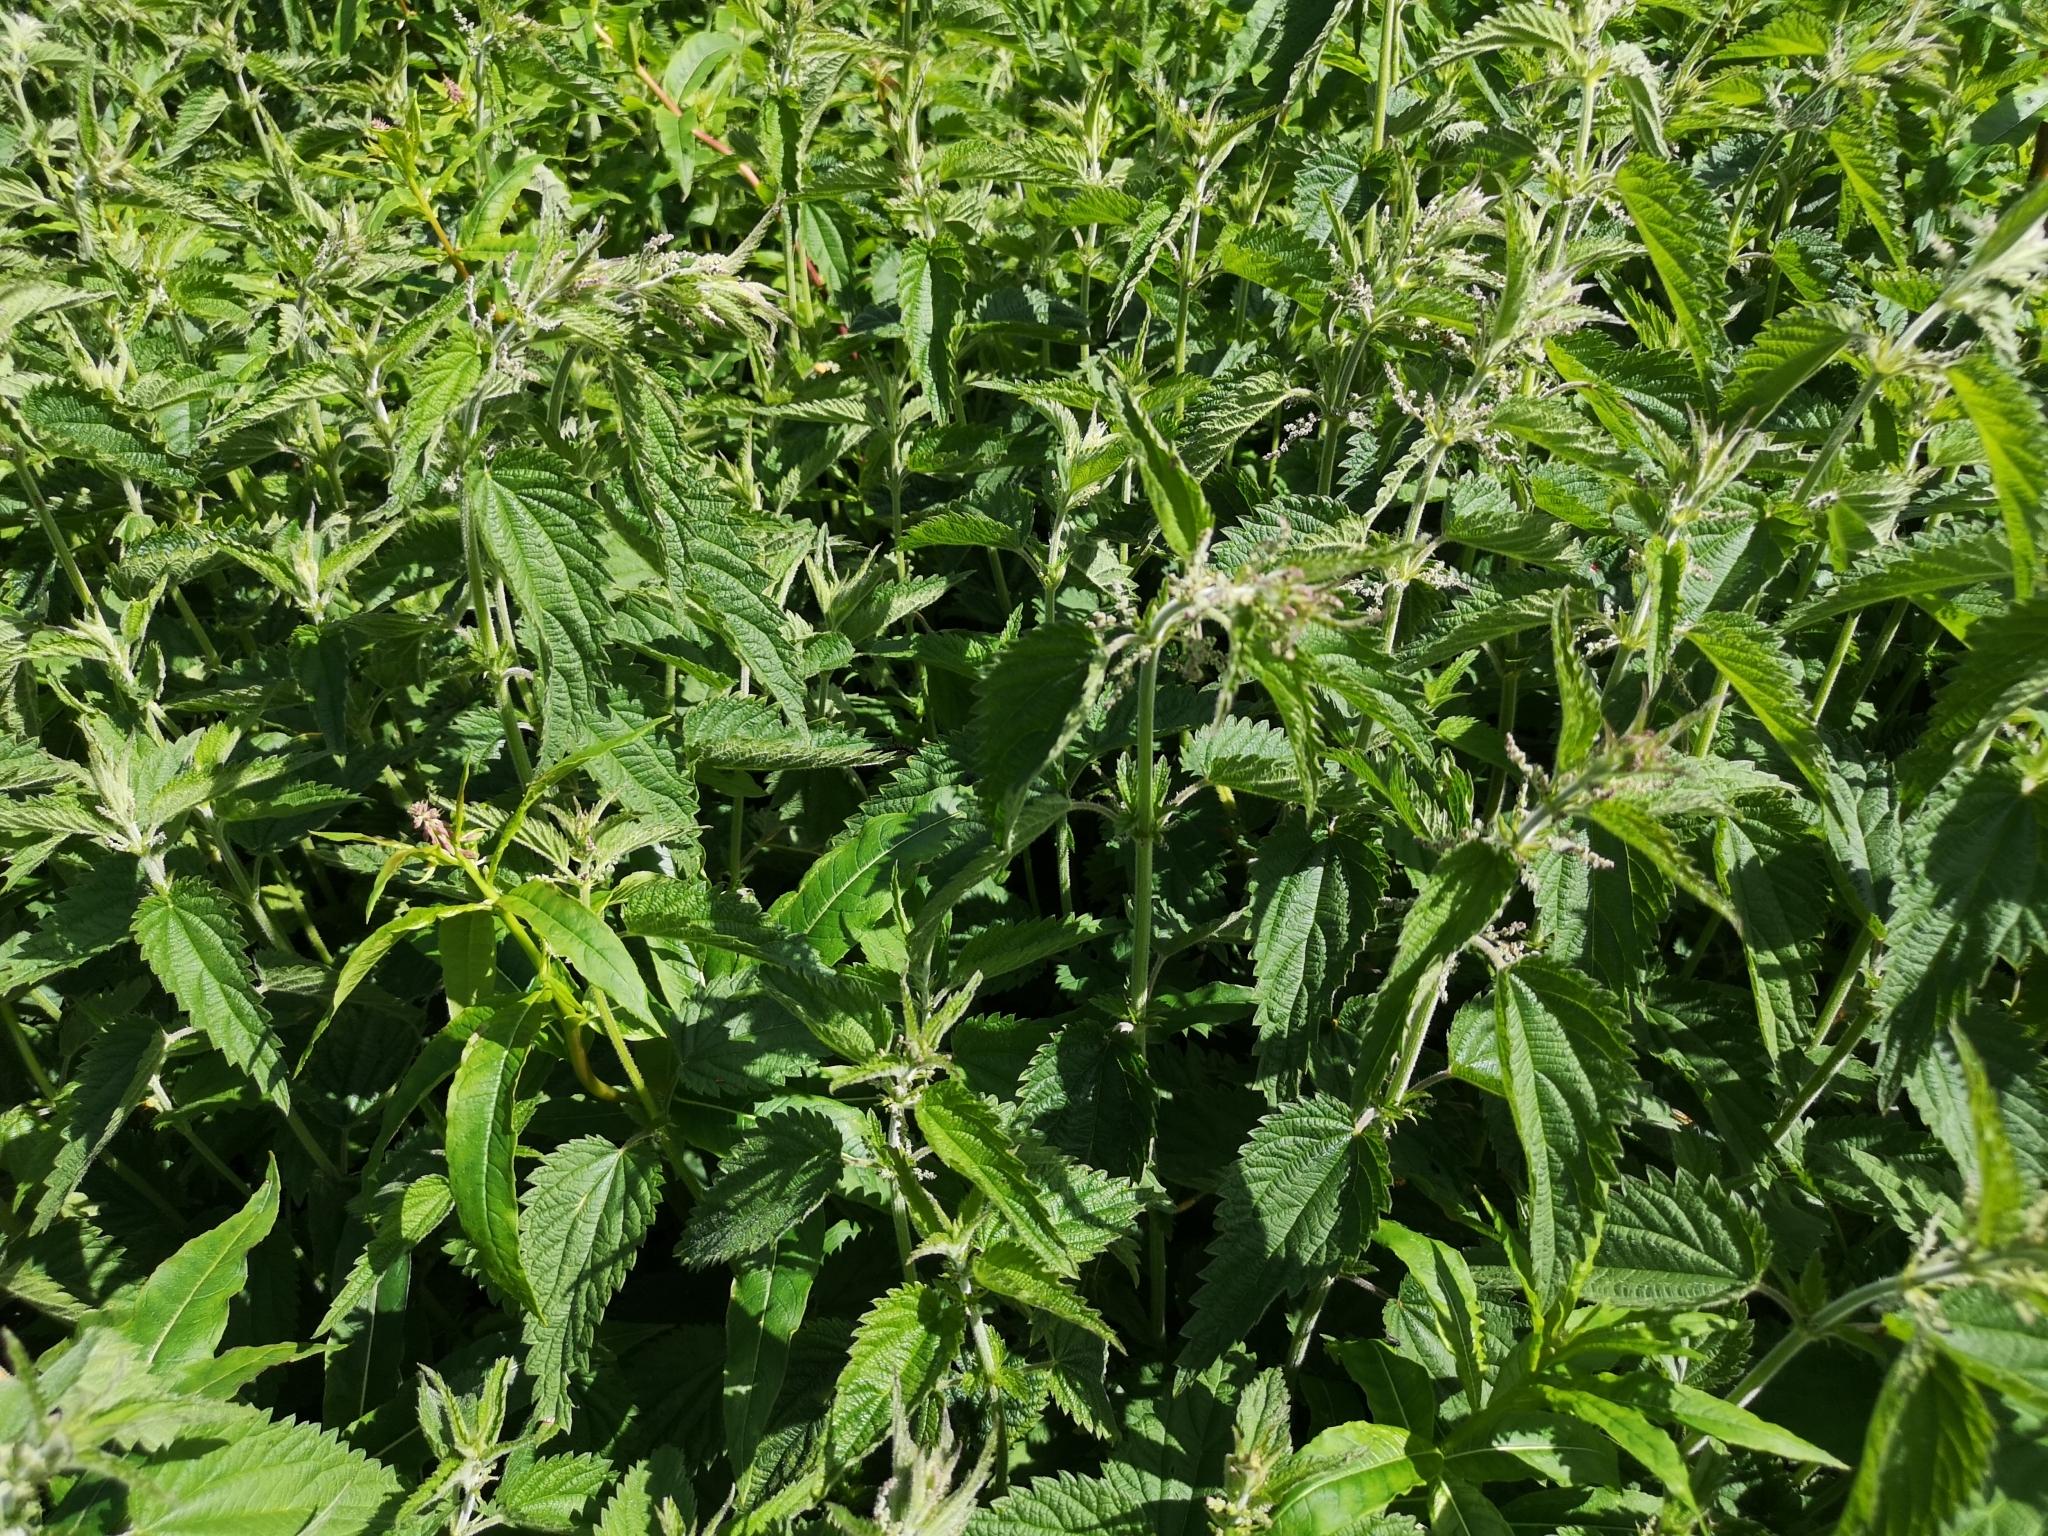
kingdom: Plantae
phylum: Tracheophyta
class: Magnoliopsida
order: Rosales
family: Urticaceae
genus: Urtica
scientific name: Urtica dioica
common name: Common nettle
